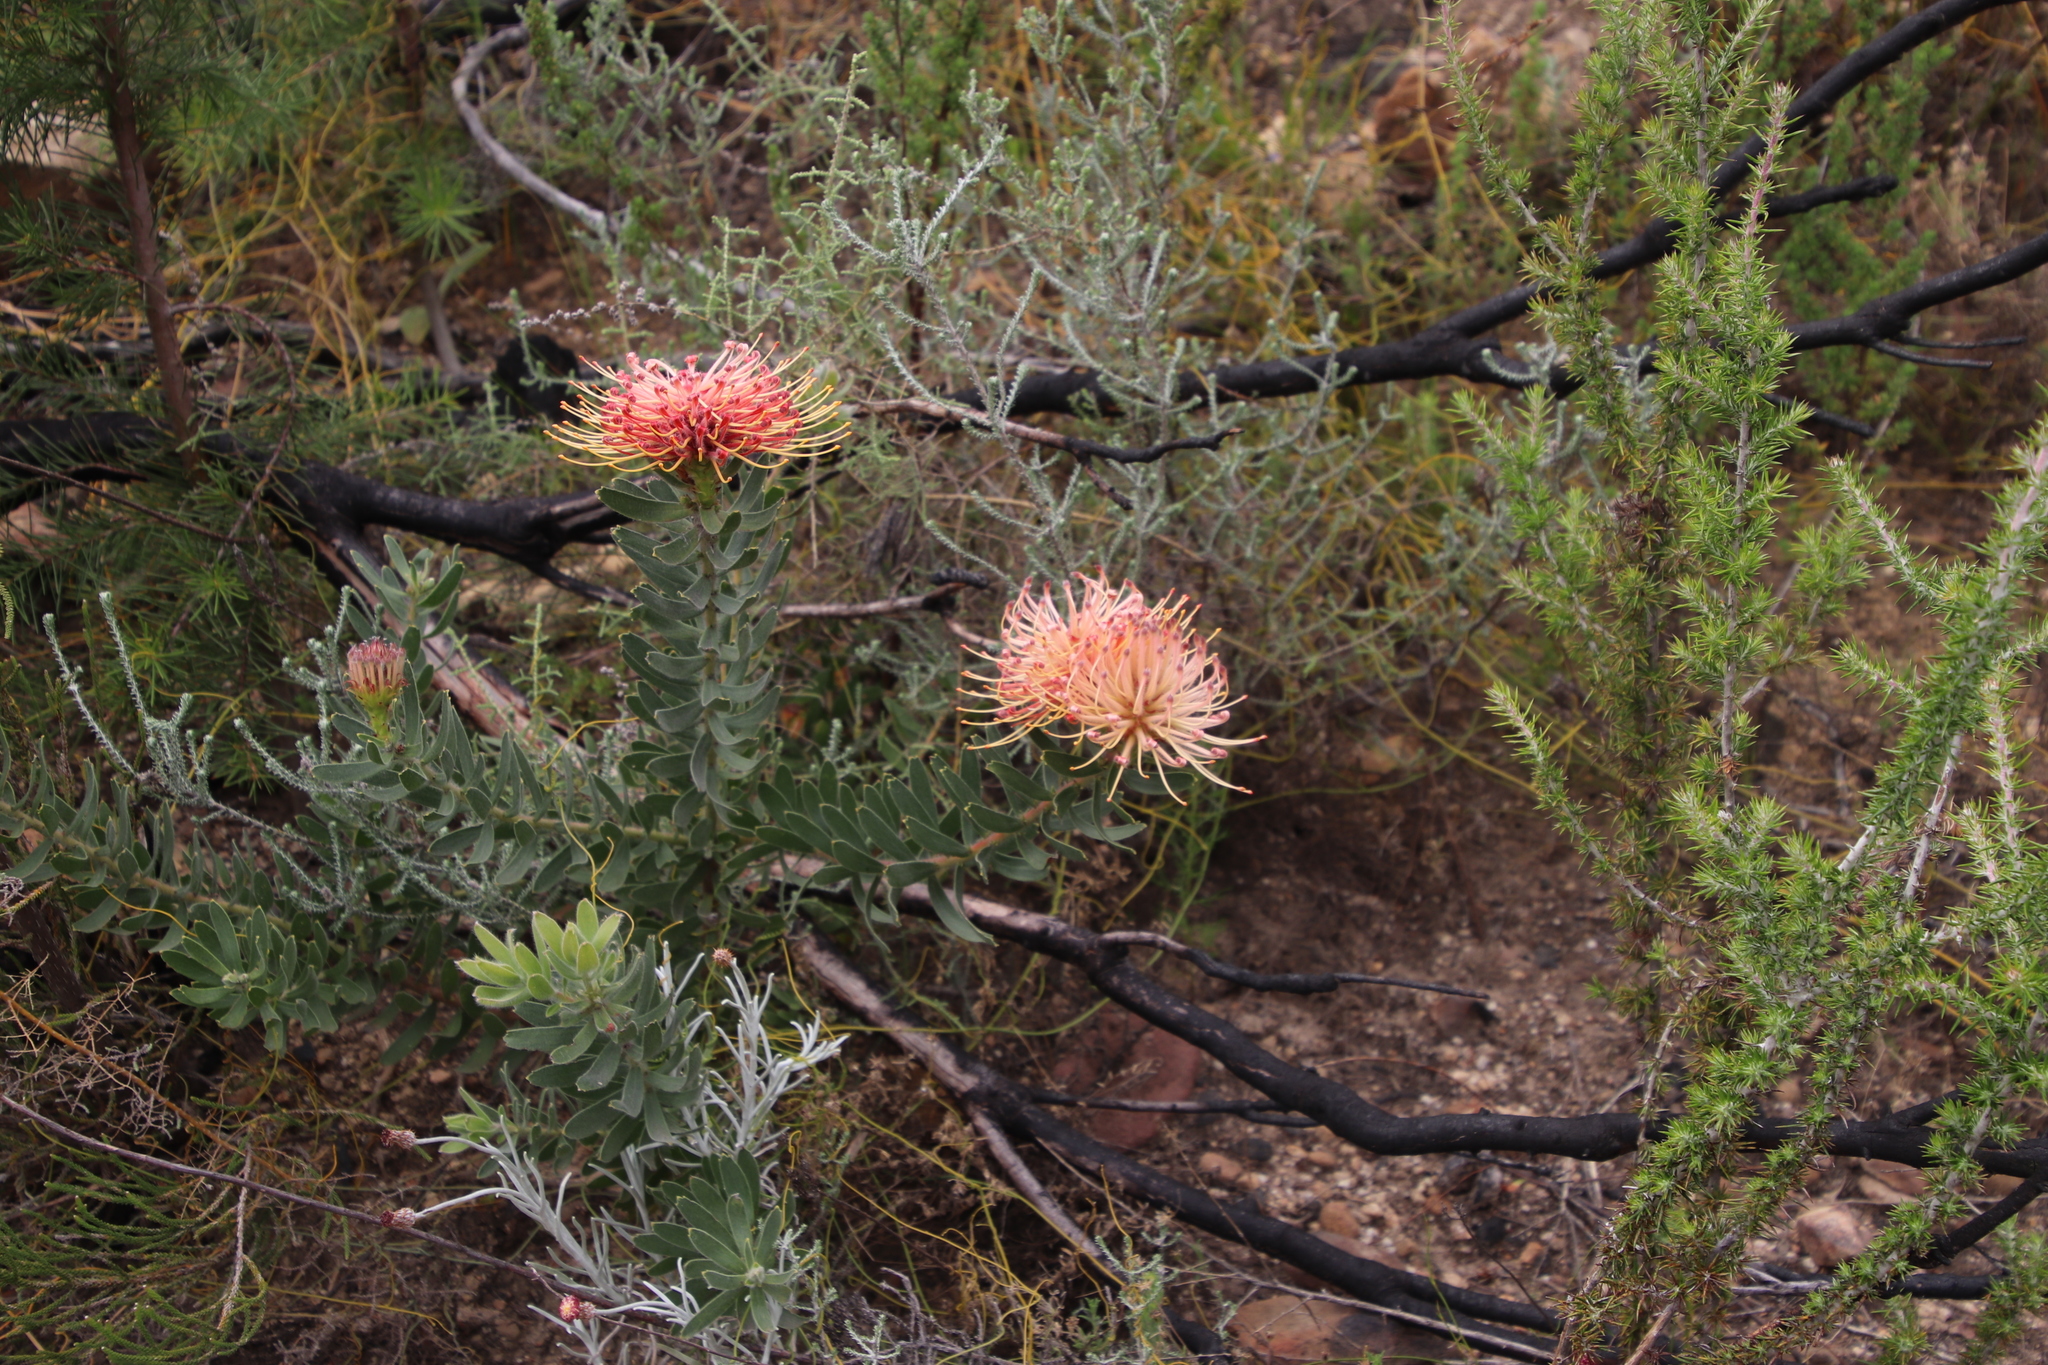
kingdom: Plantae
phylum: Tracheophyta
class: Magnoliopsida
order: Proteales
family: Proteaceae
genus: Leucospermum
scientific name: Leucospermum tottum
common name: Ribbon pincushion
